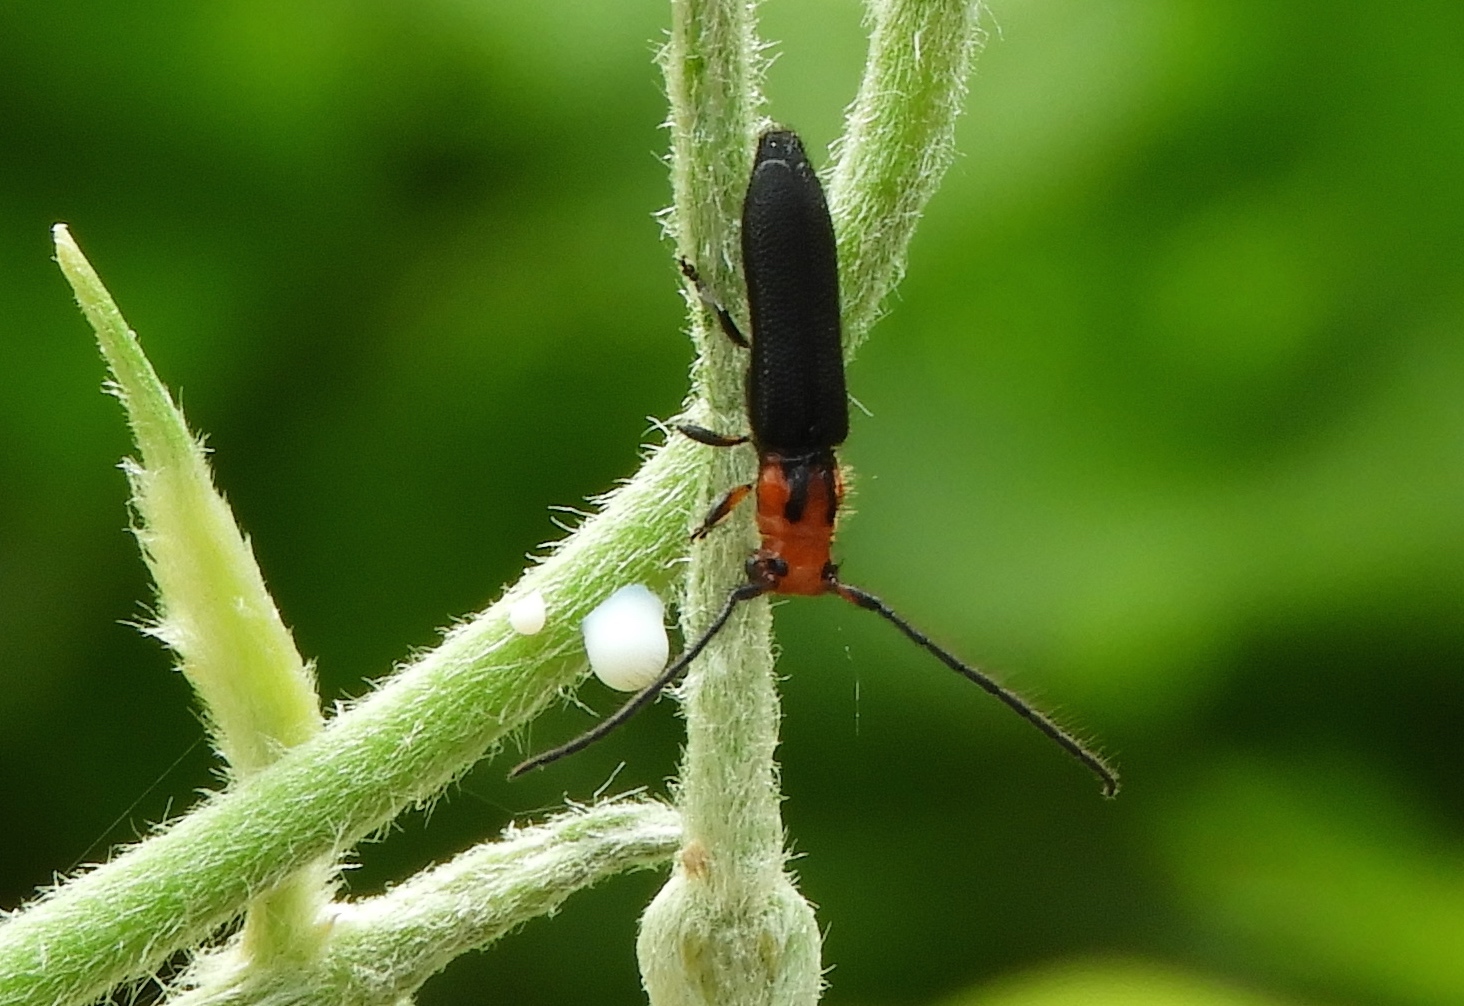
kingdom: Animalia
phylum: Arthropoda
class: Insecta
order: Coleoptera
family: Cerambycidae
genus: Phaea
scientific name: Phaea vitticollis
